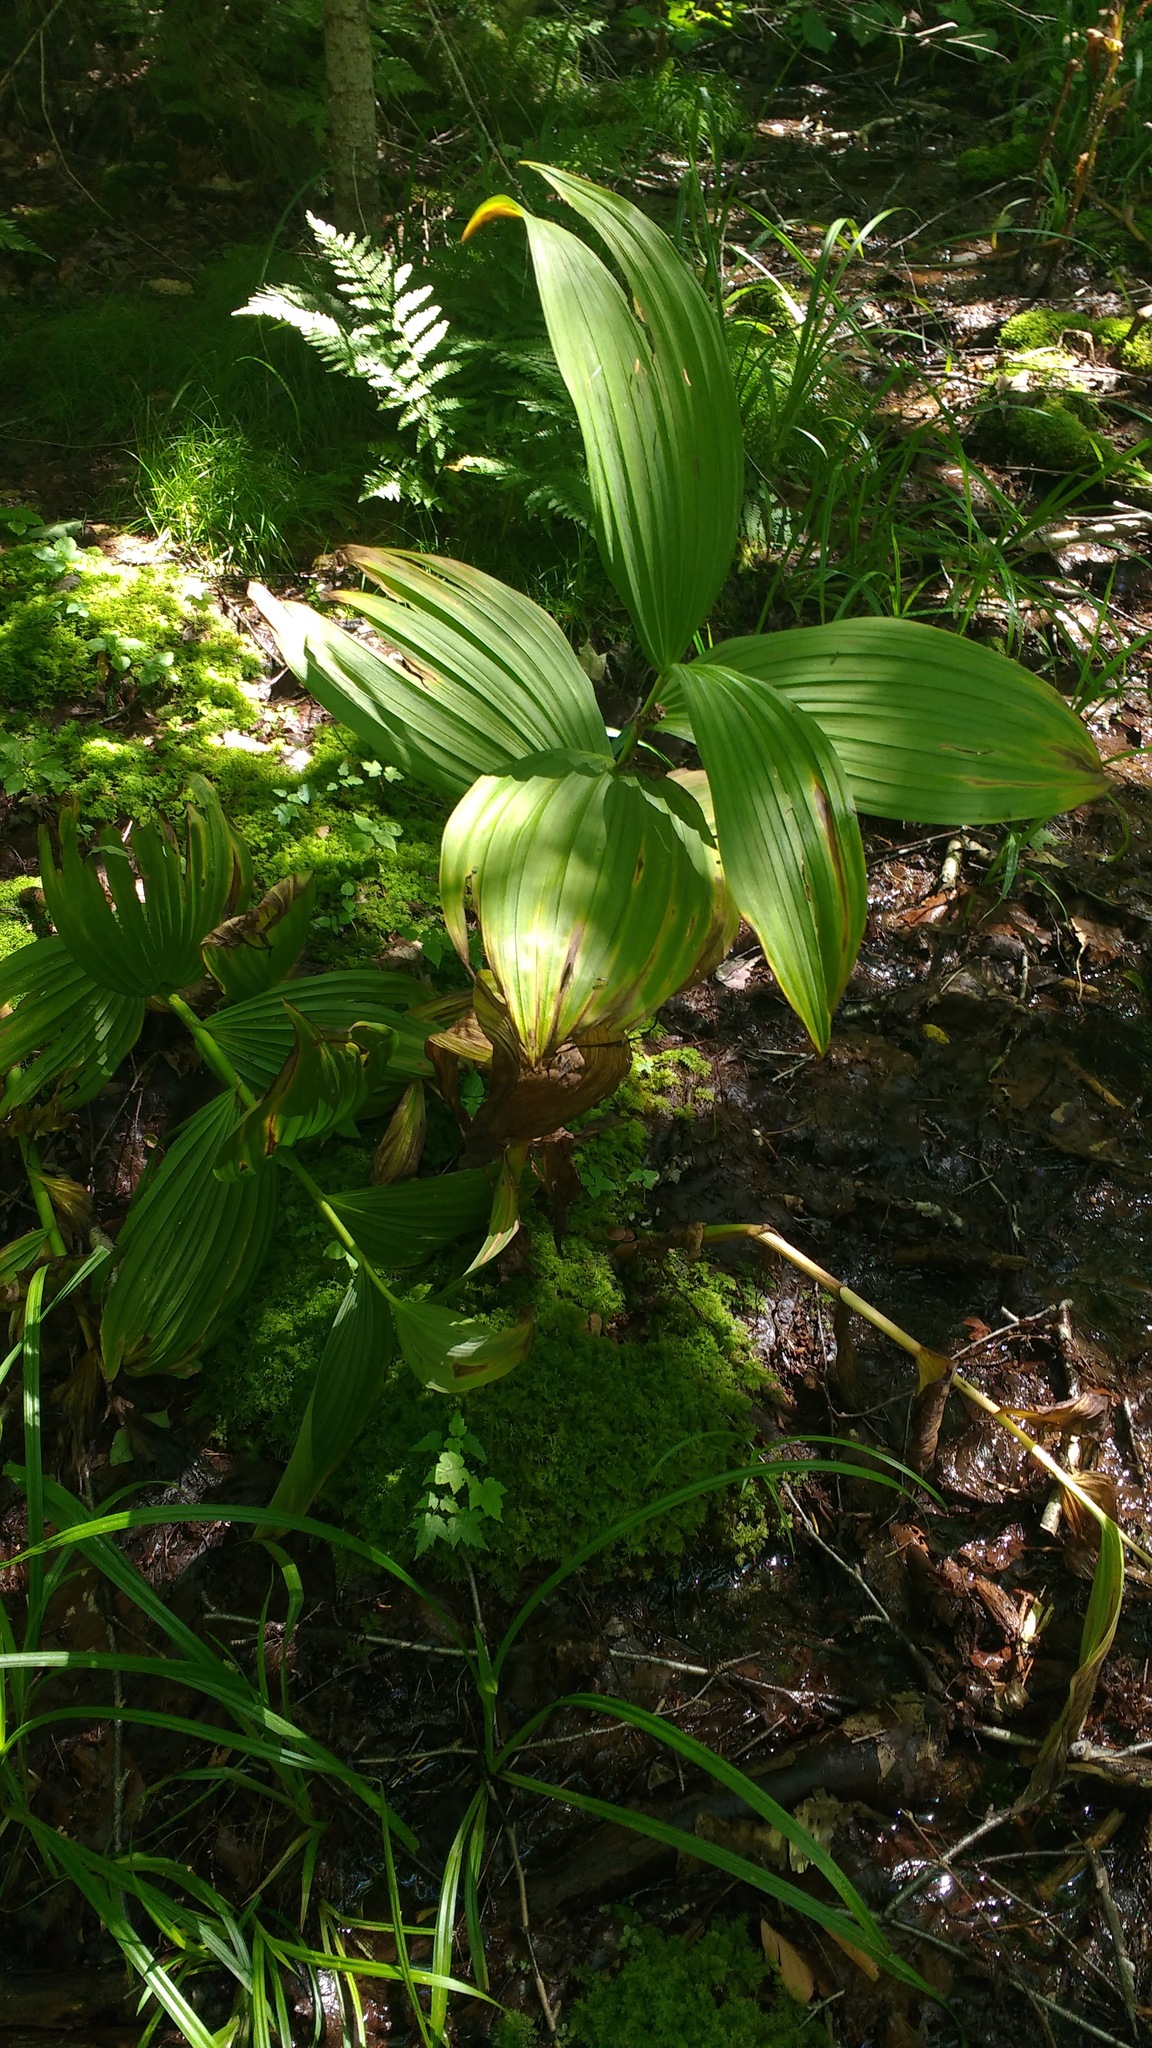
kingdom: Plantae
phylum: Tracheophyta
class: Liliopsida
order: Liliales
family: Melanthiaceae
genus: Veratrum
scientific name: Veratrum viride
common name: American false hellebore
